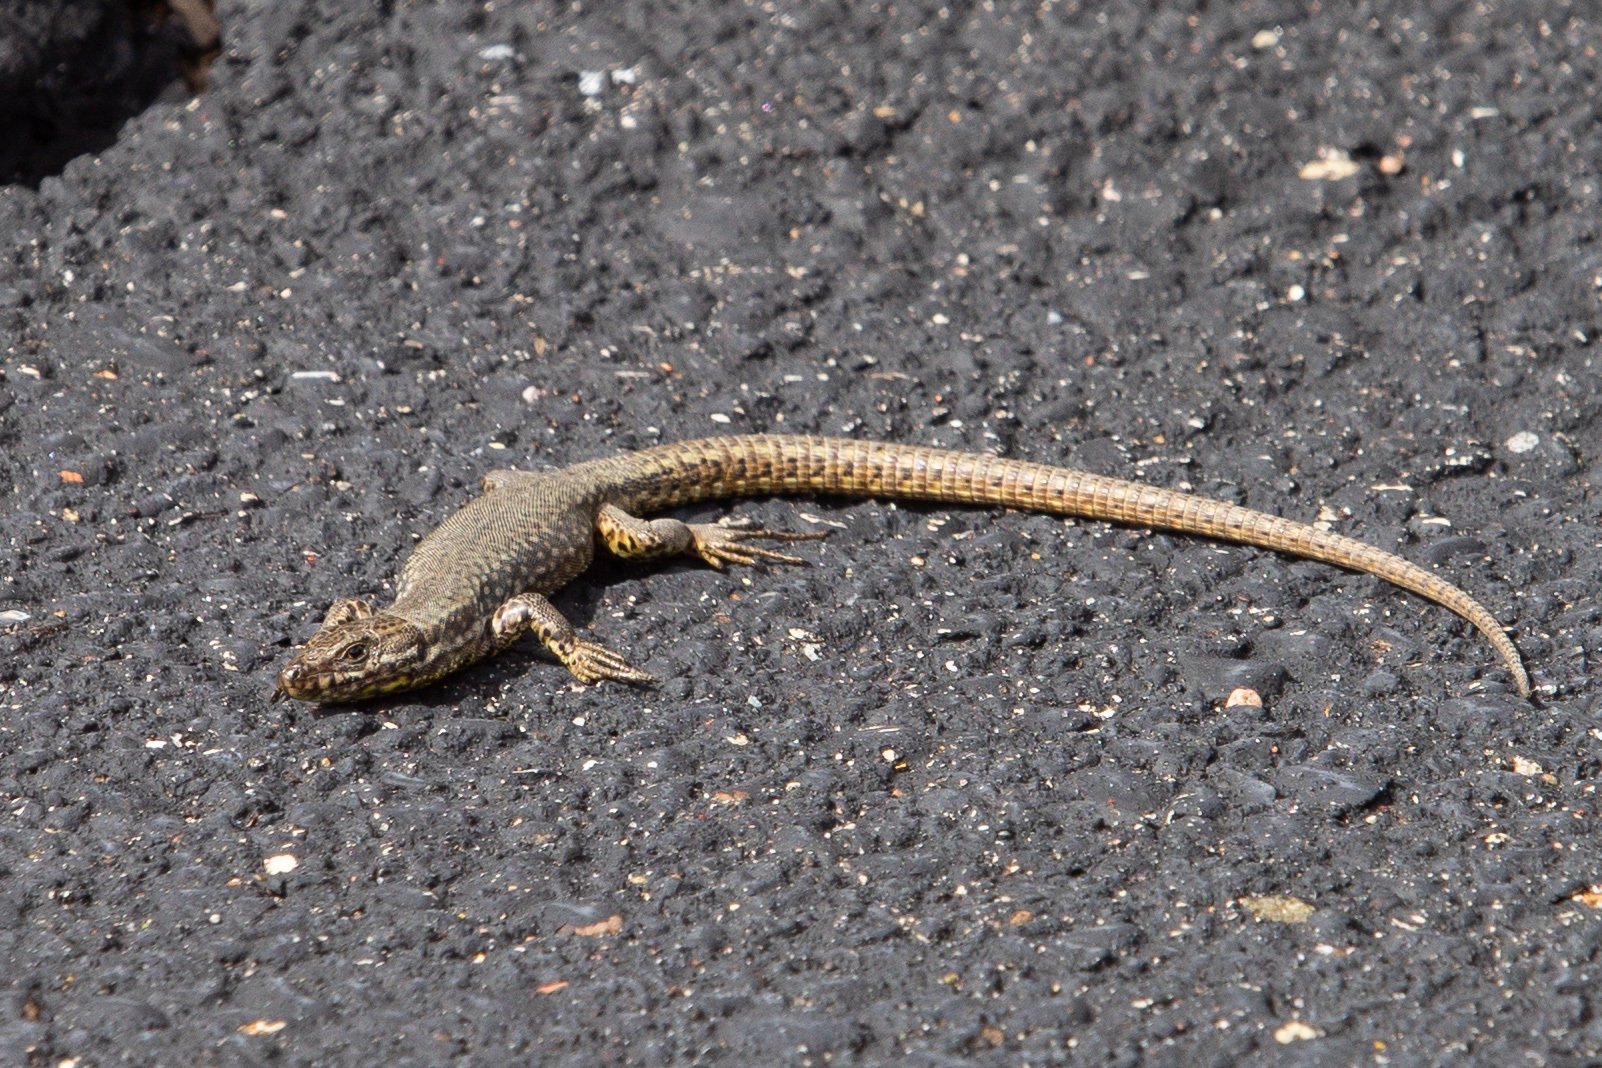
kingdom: Animalia
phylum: Chordata
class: Squamata
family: Lacertidae
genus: Podarcis
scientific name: Podarcis muralis
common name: Common wall lizard
